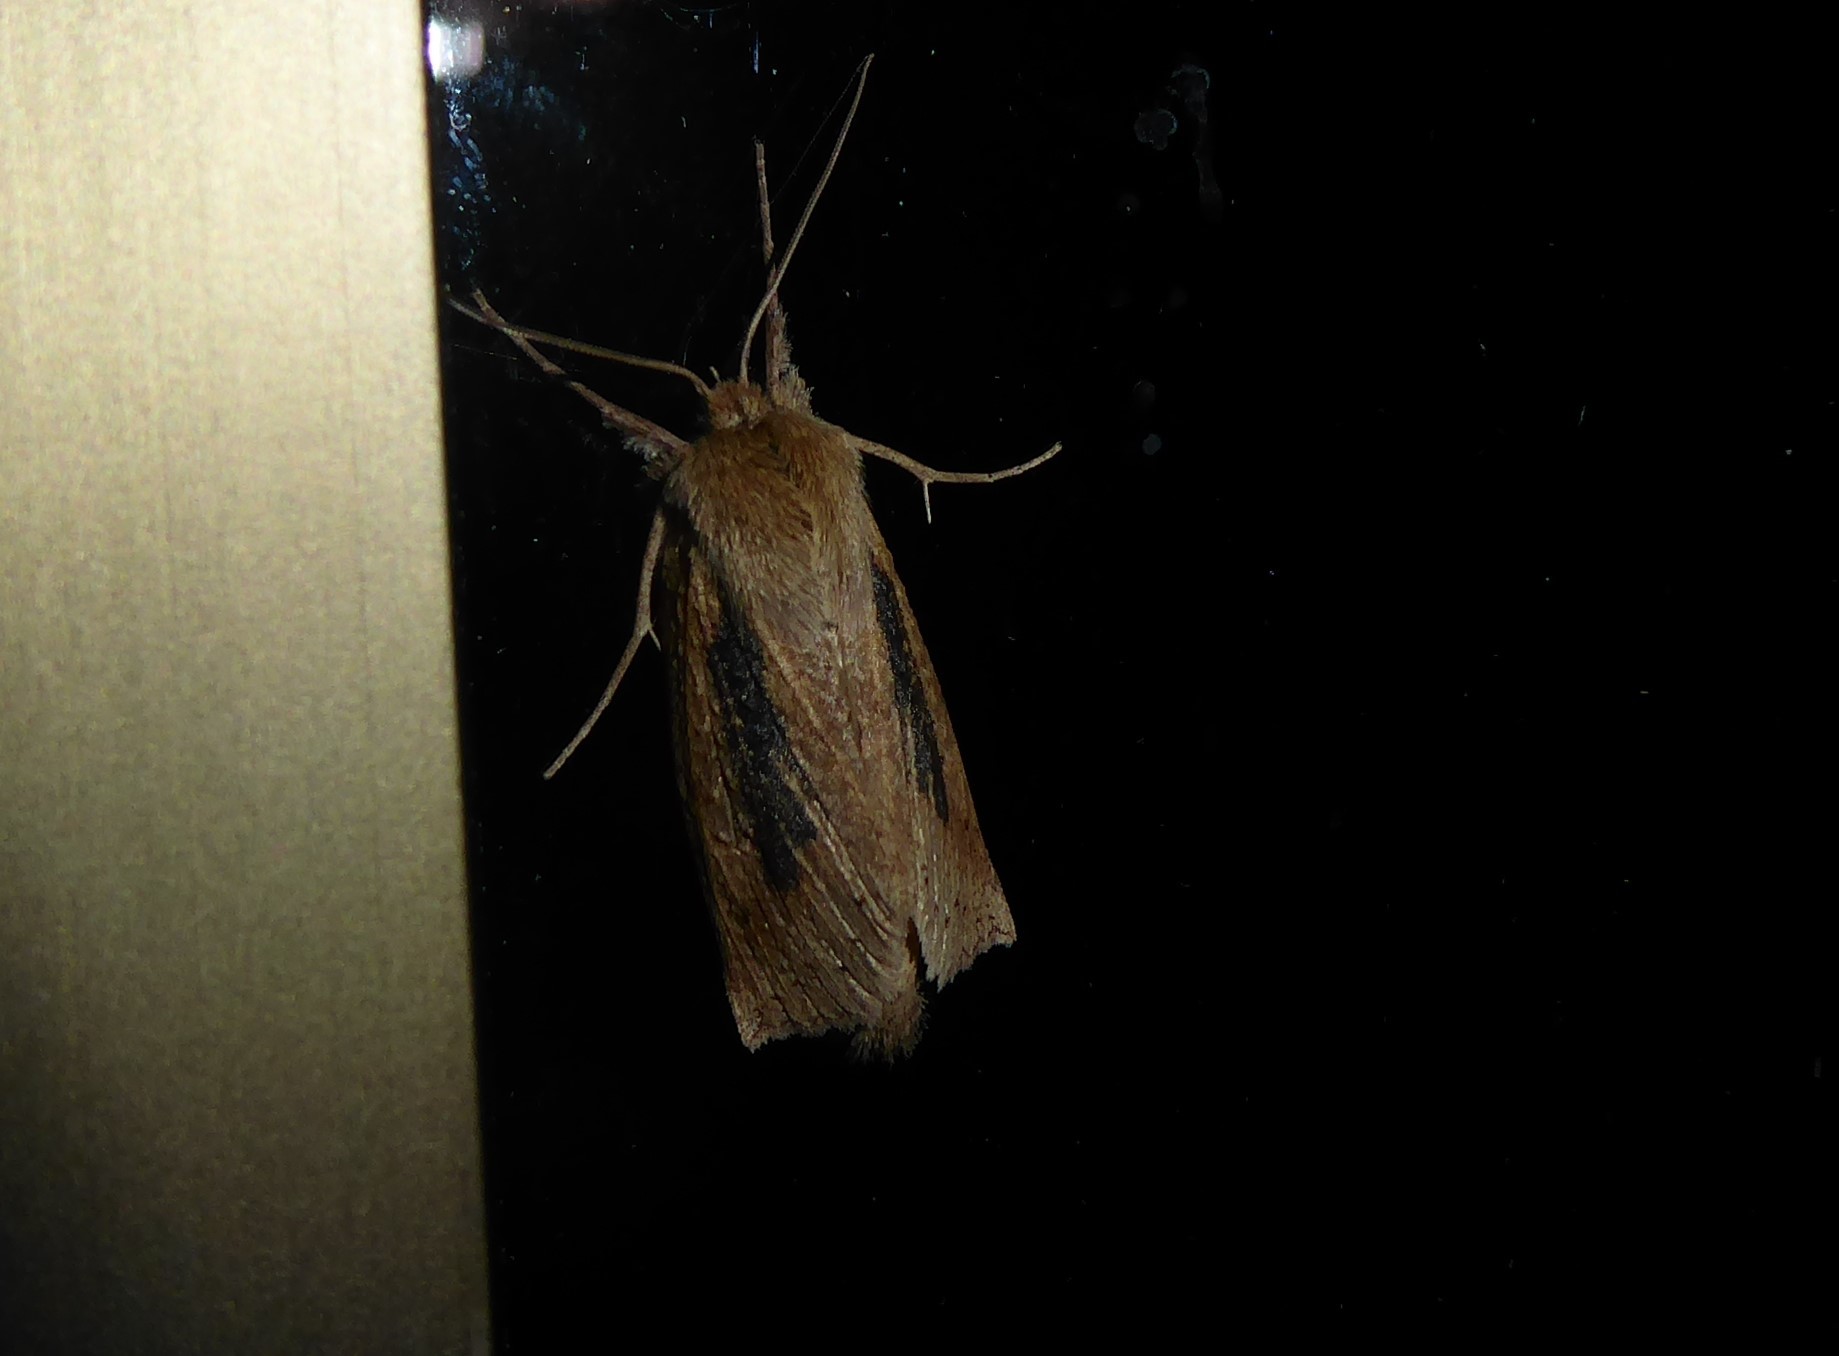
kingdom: Animalia
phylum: Arthropoda
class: Insecta
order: Lepidoptera
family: Geometridae
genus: Declana
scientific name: Declana leptomera
